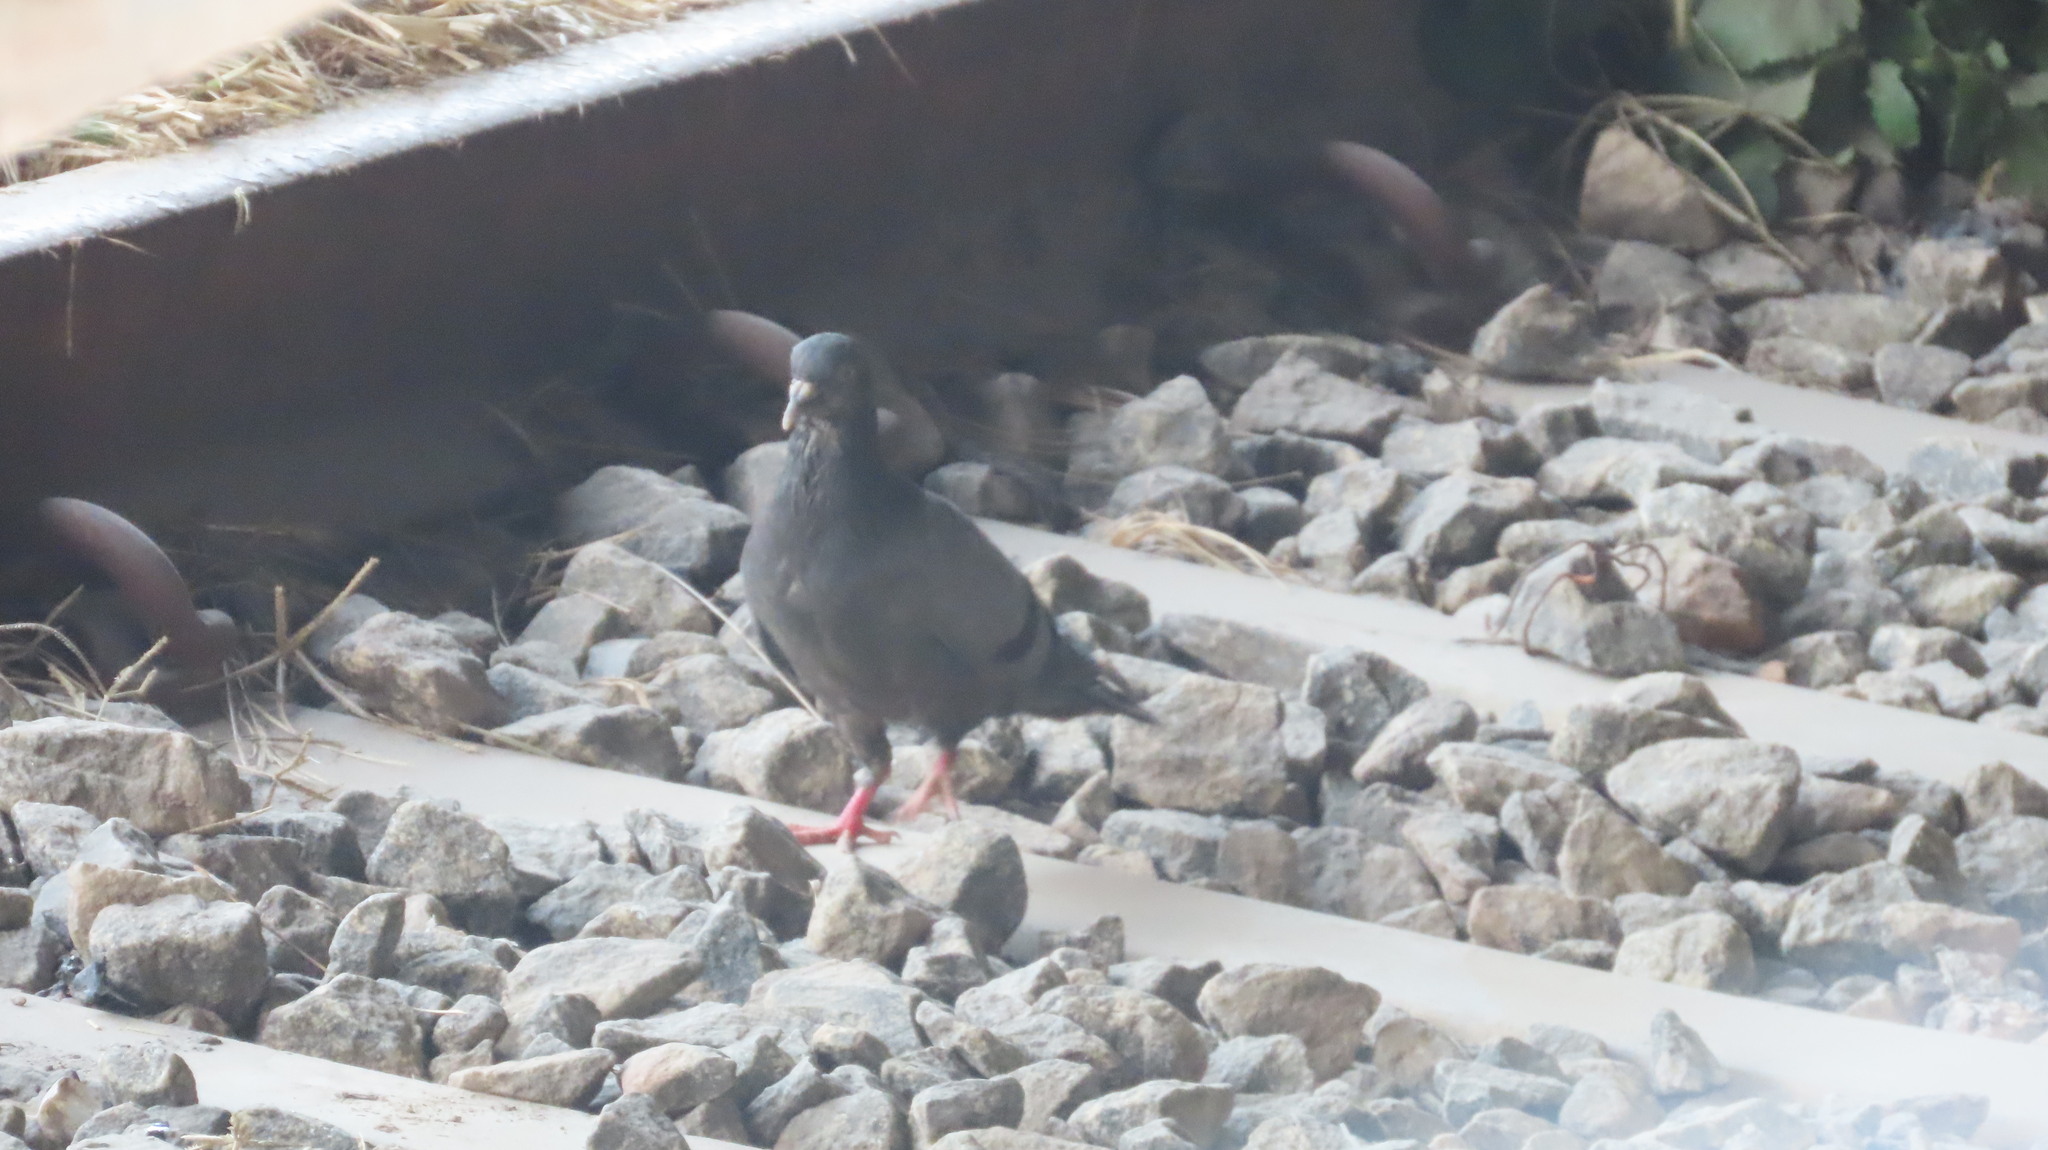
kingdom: Animalia
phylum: Chordata
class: Aves
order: Columbiformes
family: Columbidae
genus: Columba
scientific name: Columba livia
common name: Rock pigeon
